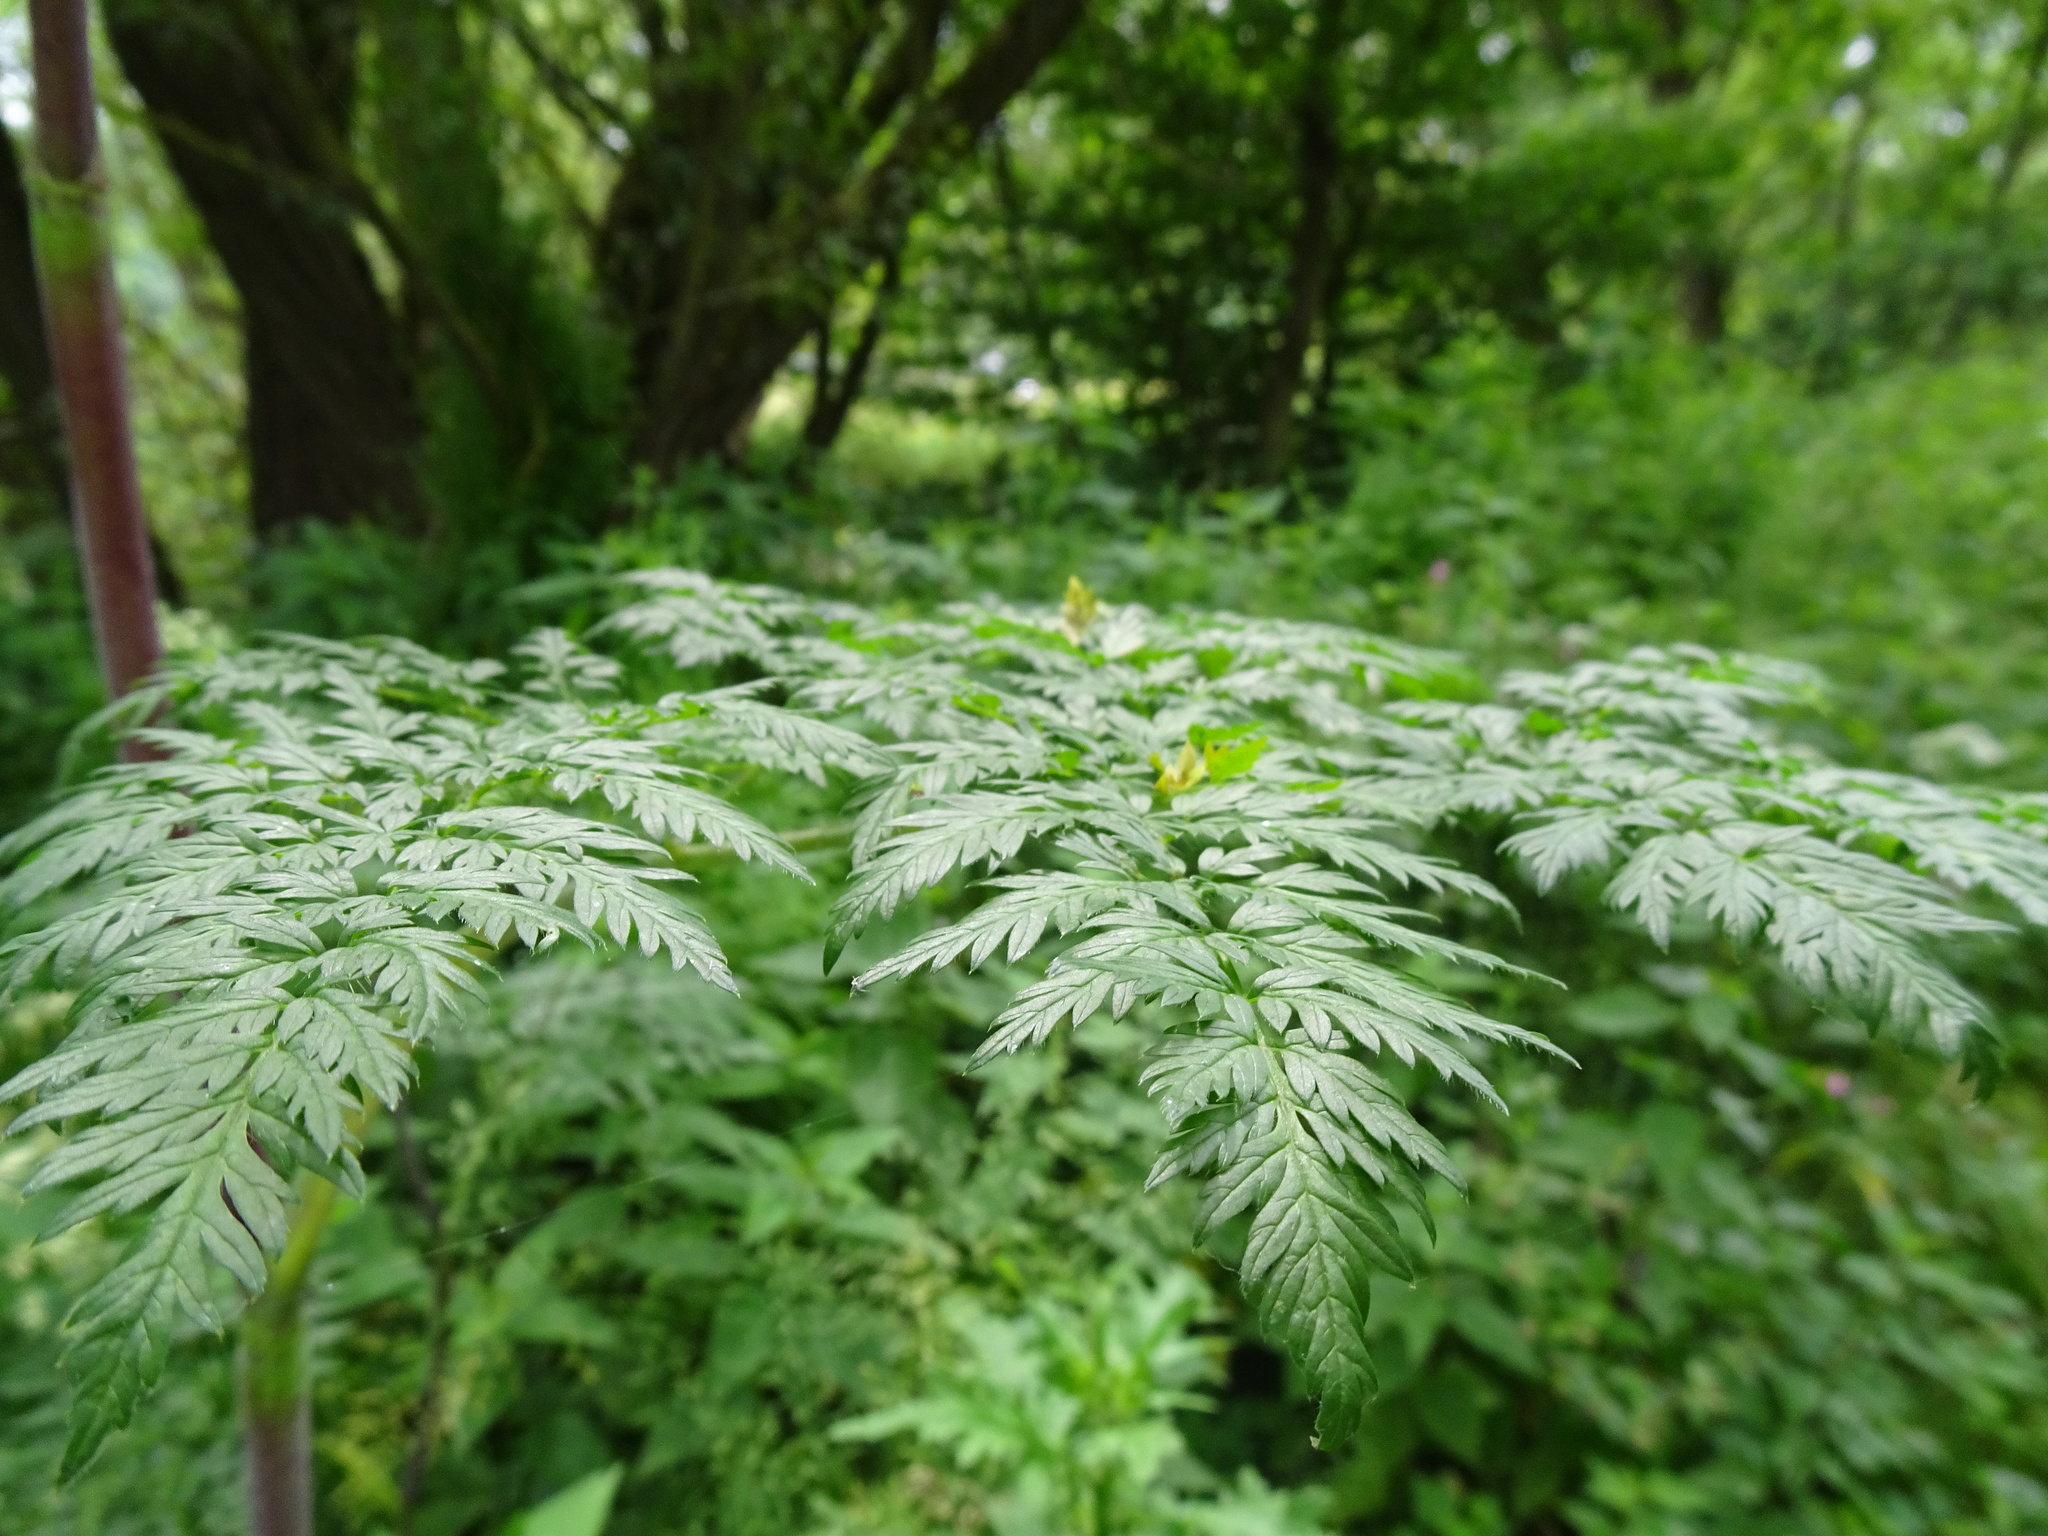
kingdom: Plantae
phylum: Tracheophyta
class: Magnoliopsida
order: Apiales
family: Apiaceae
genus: Conium
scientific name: Conium maculatum
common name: Hemlock
